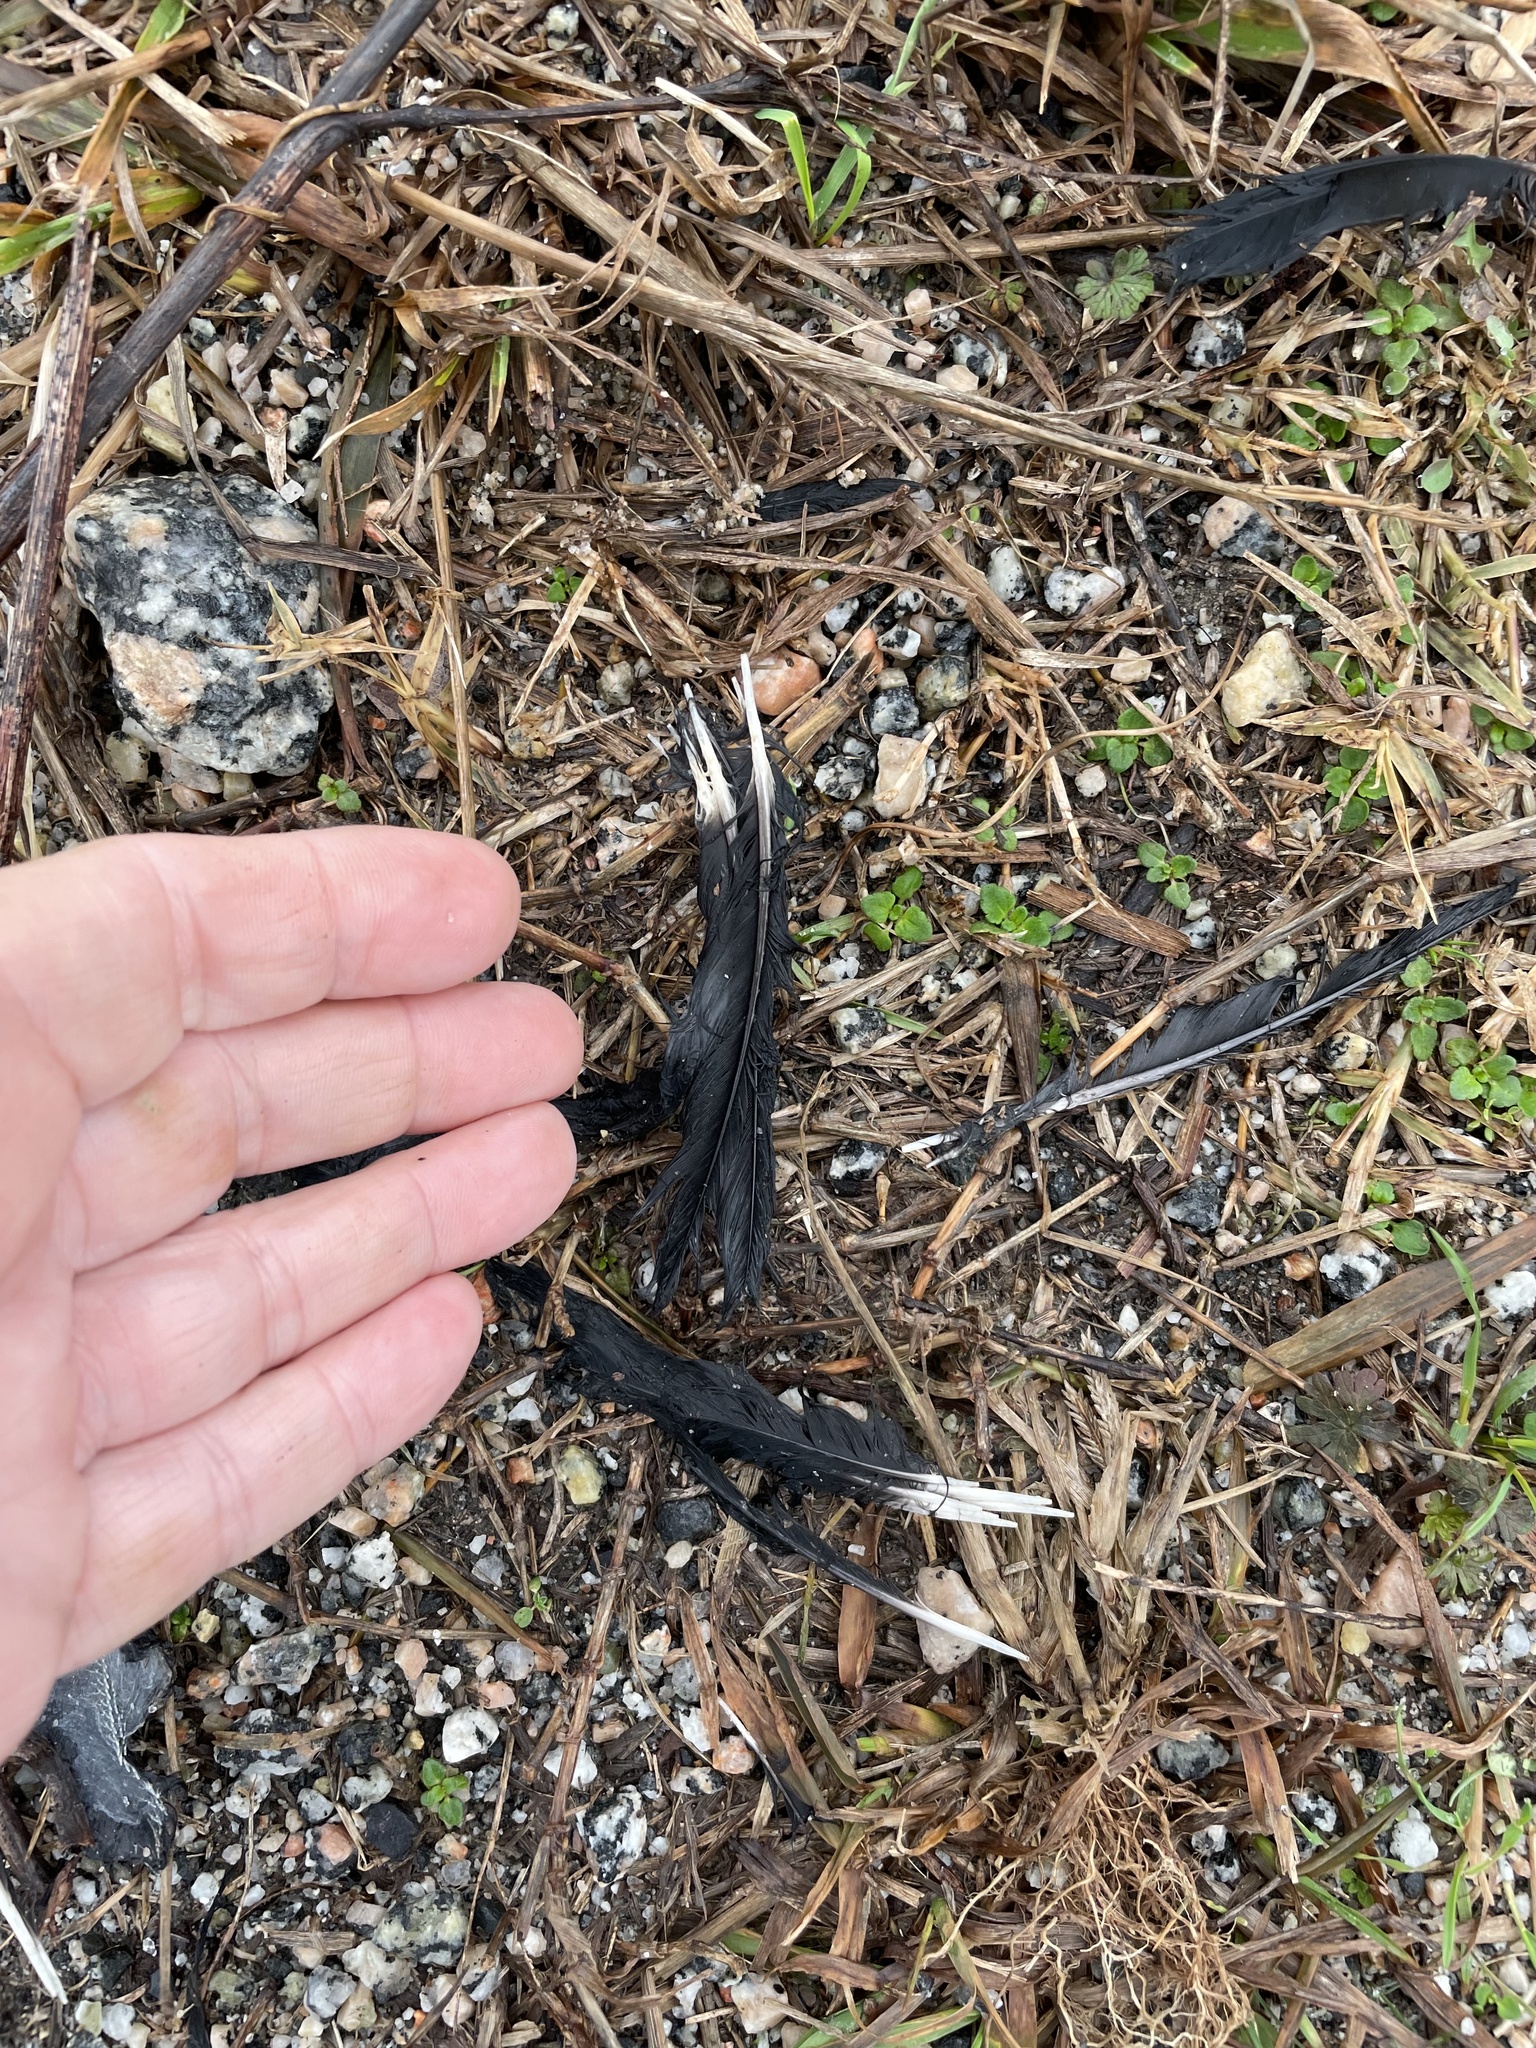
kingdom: Animalia
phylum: Chordata
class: Aves
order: Passeriformes
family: Icteridae
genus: Agelaius
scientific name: Agelaius phoeniceus
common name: Red-winged blackbird
